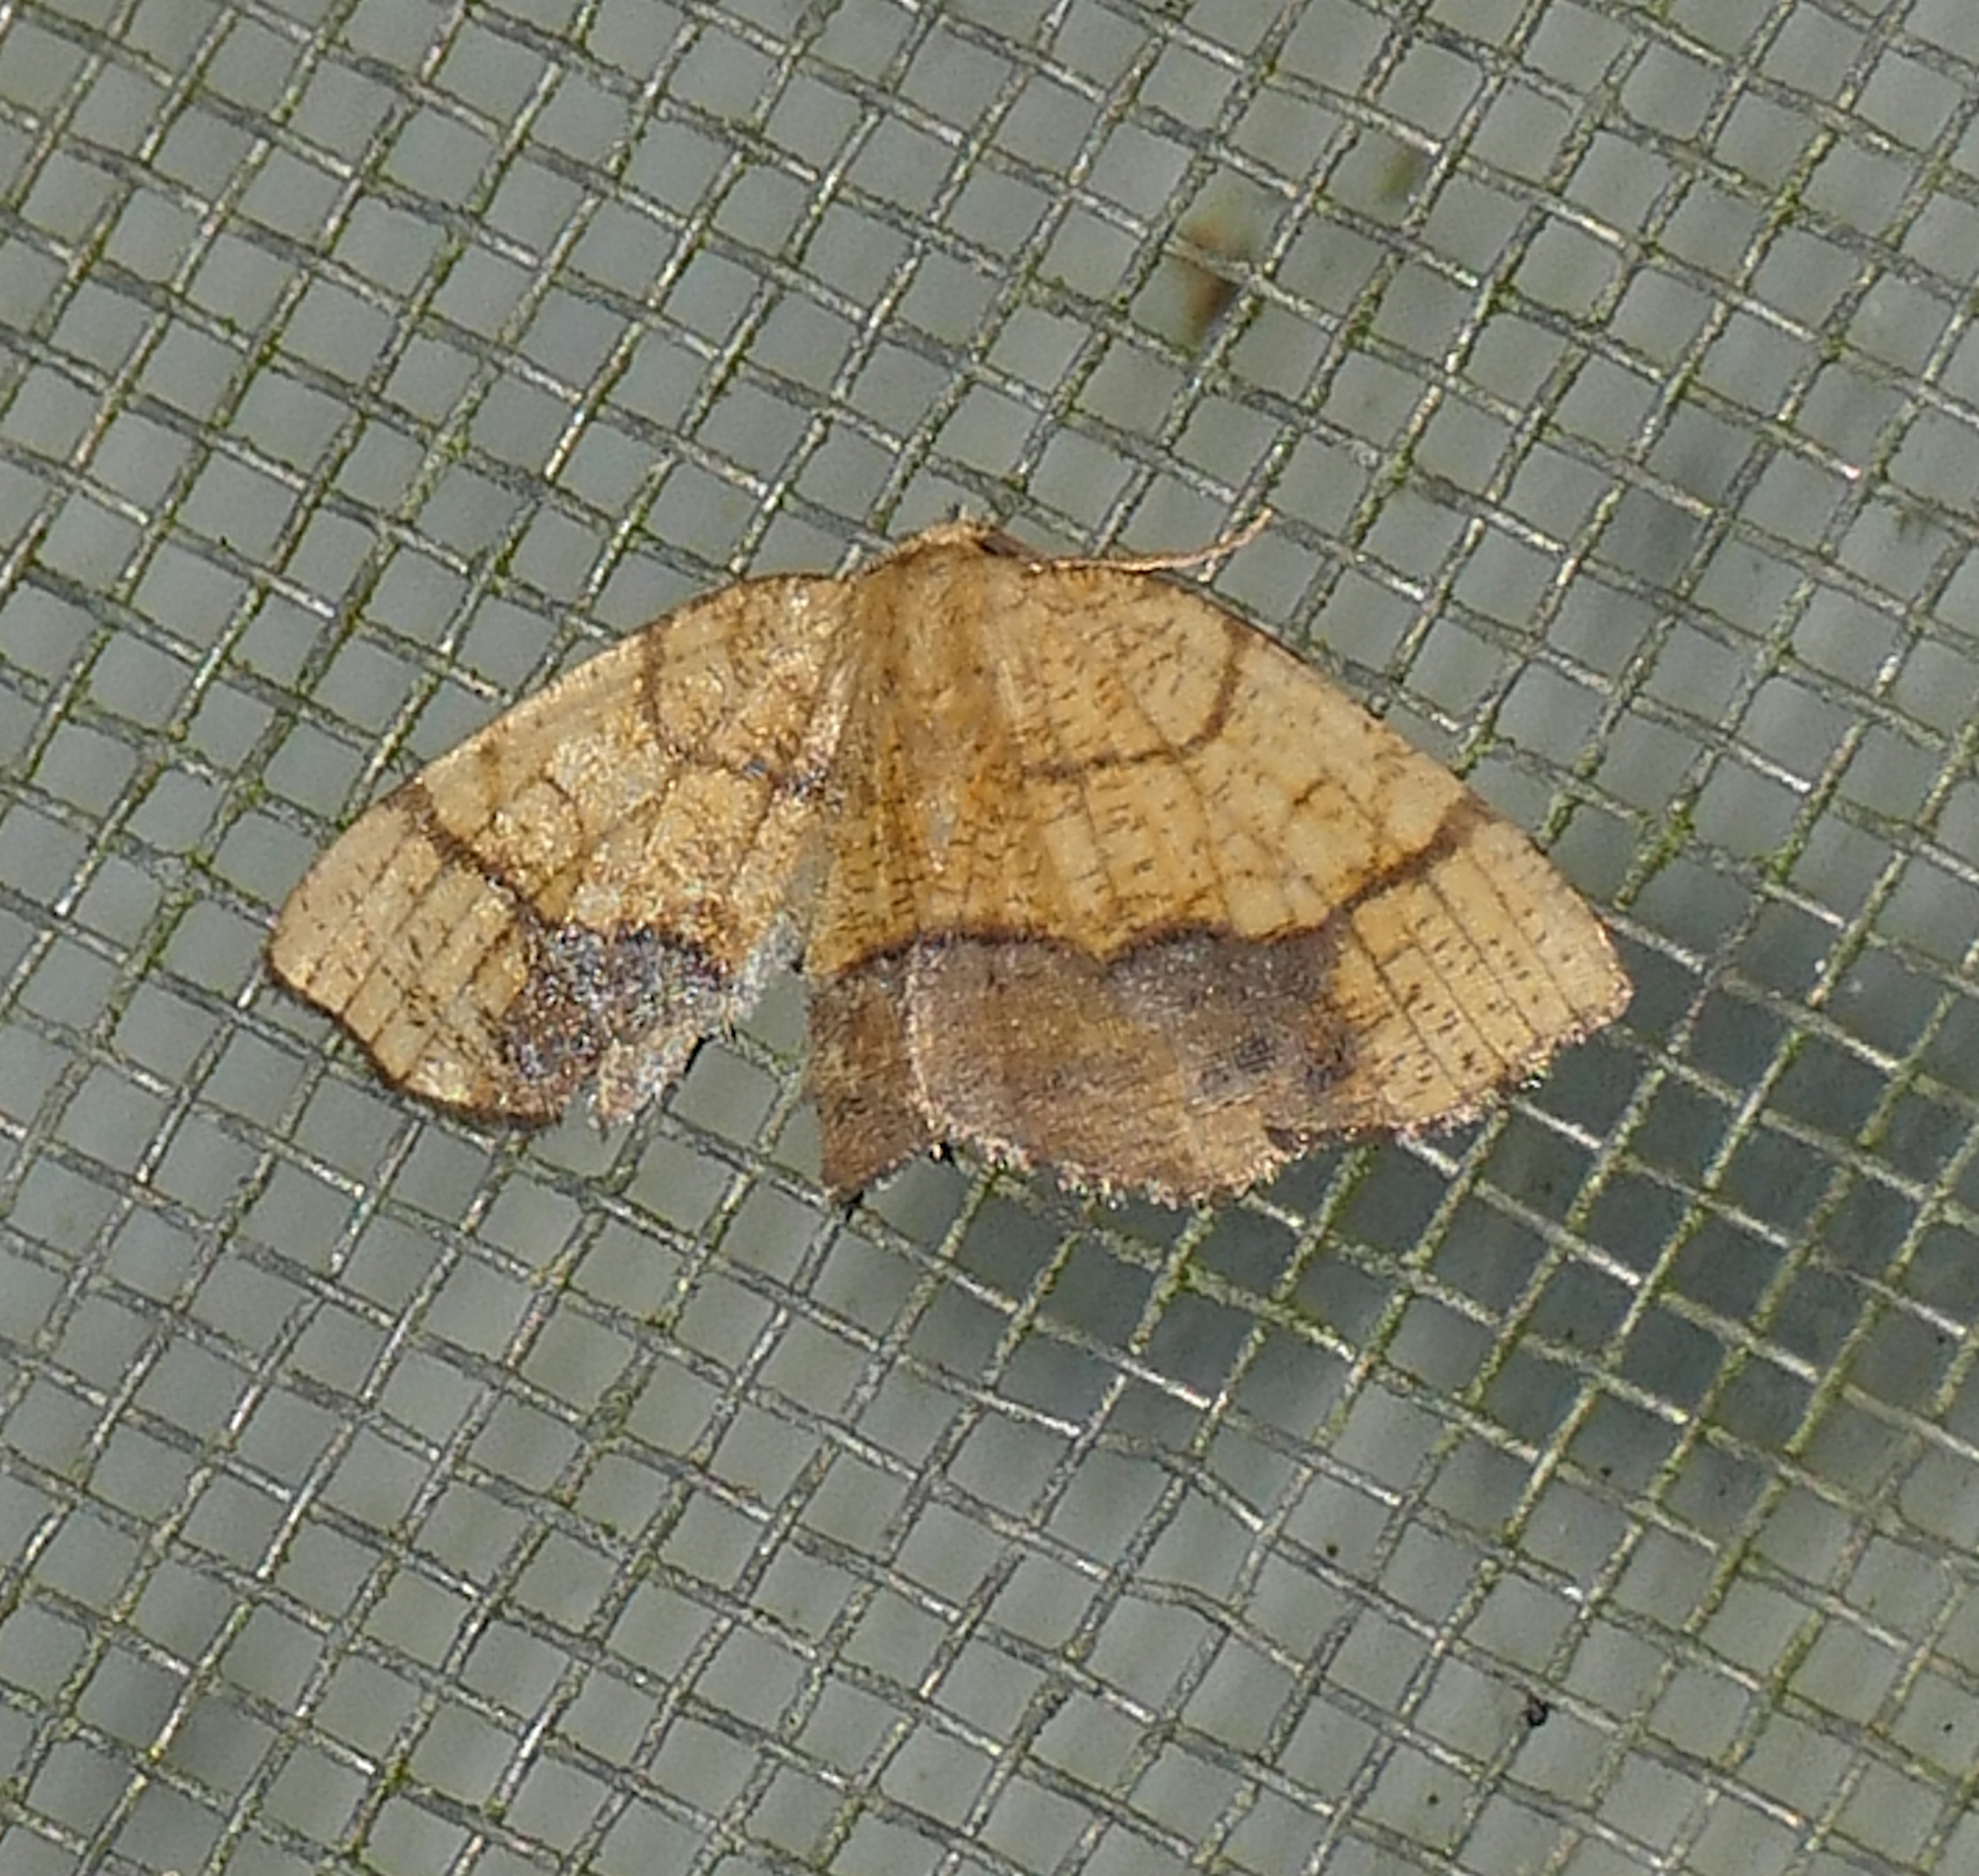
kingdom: Animalia
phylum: Arthropoda
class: Insecta
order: Lepidoptera
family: Geometridae
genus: Nematocampa
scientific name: Nematocampa resistaria
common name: Horned spanworm moth
